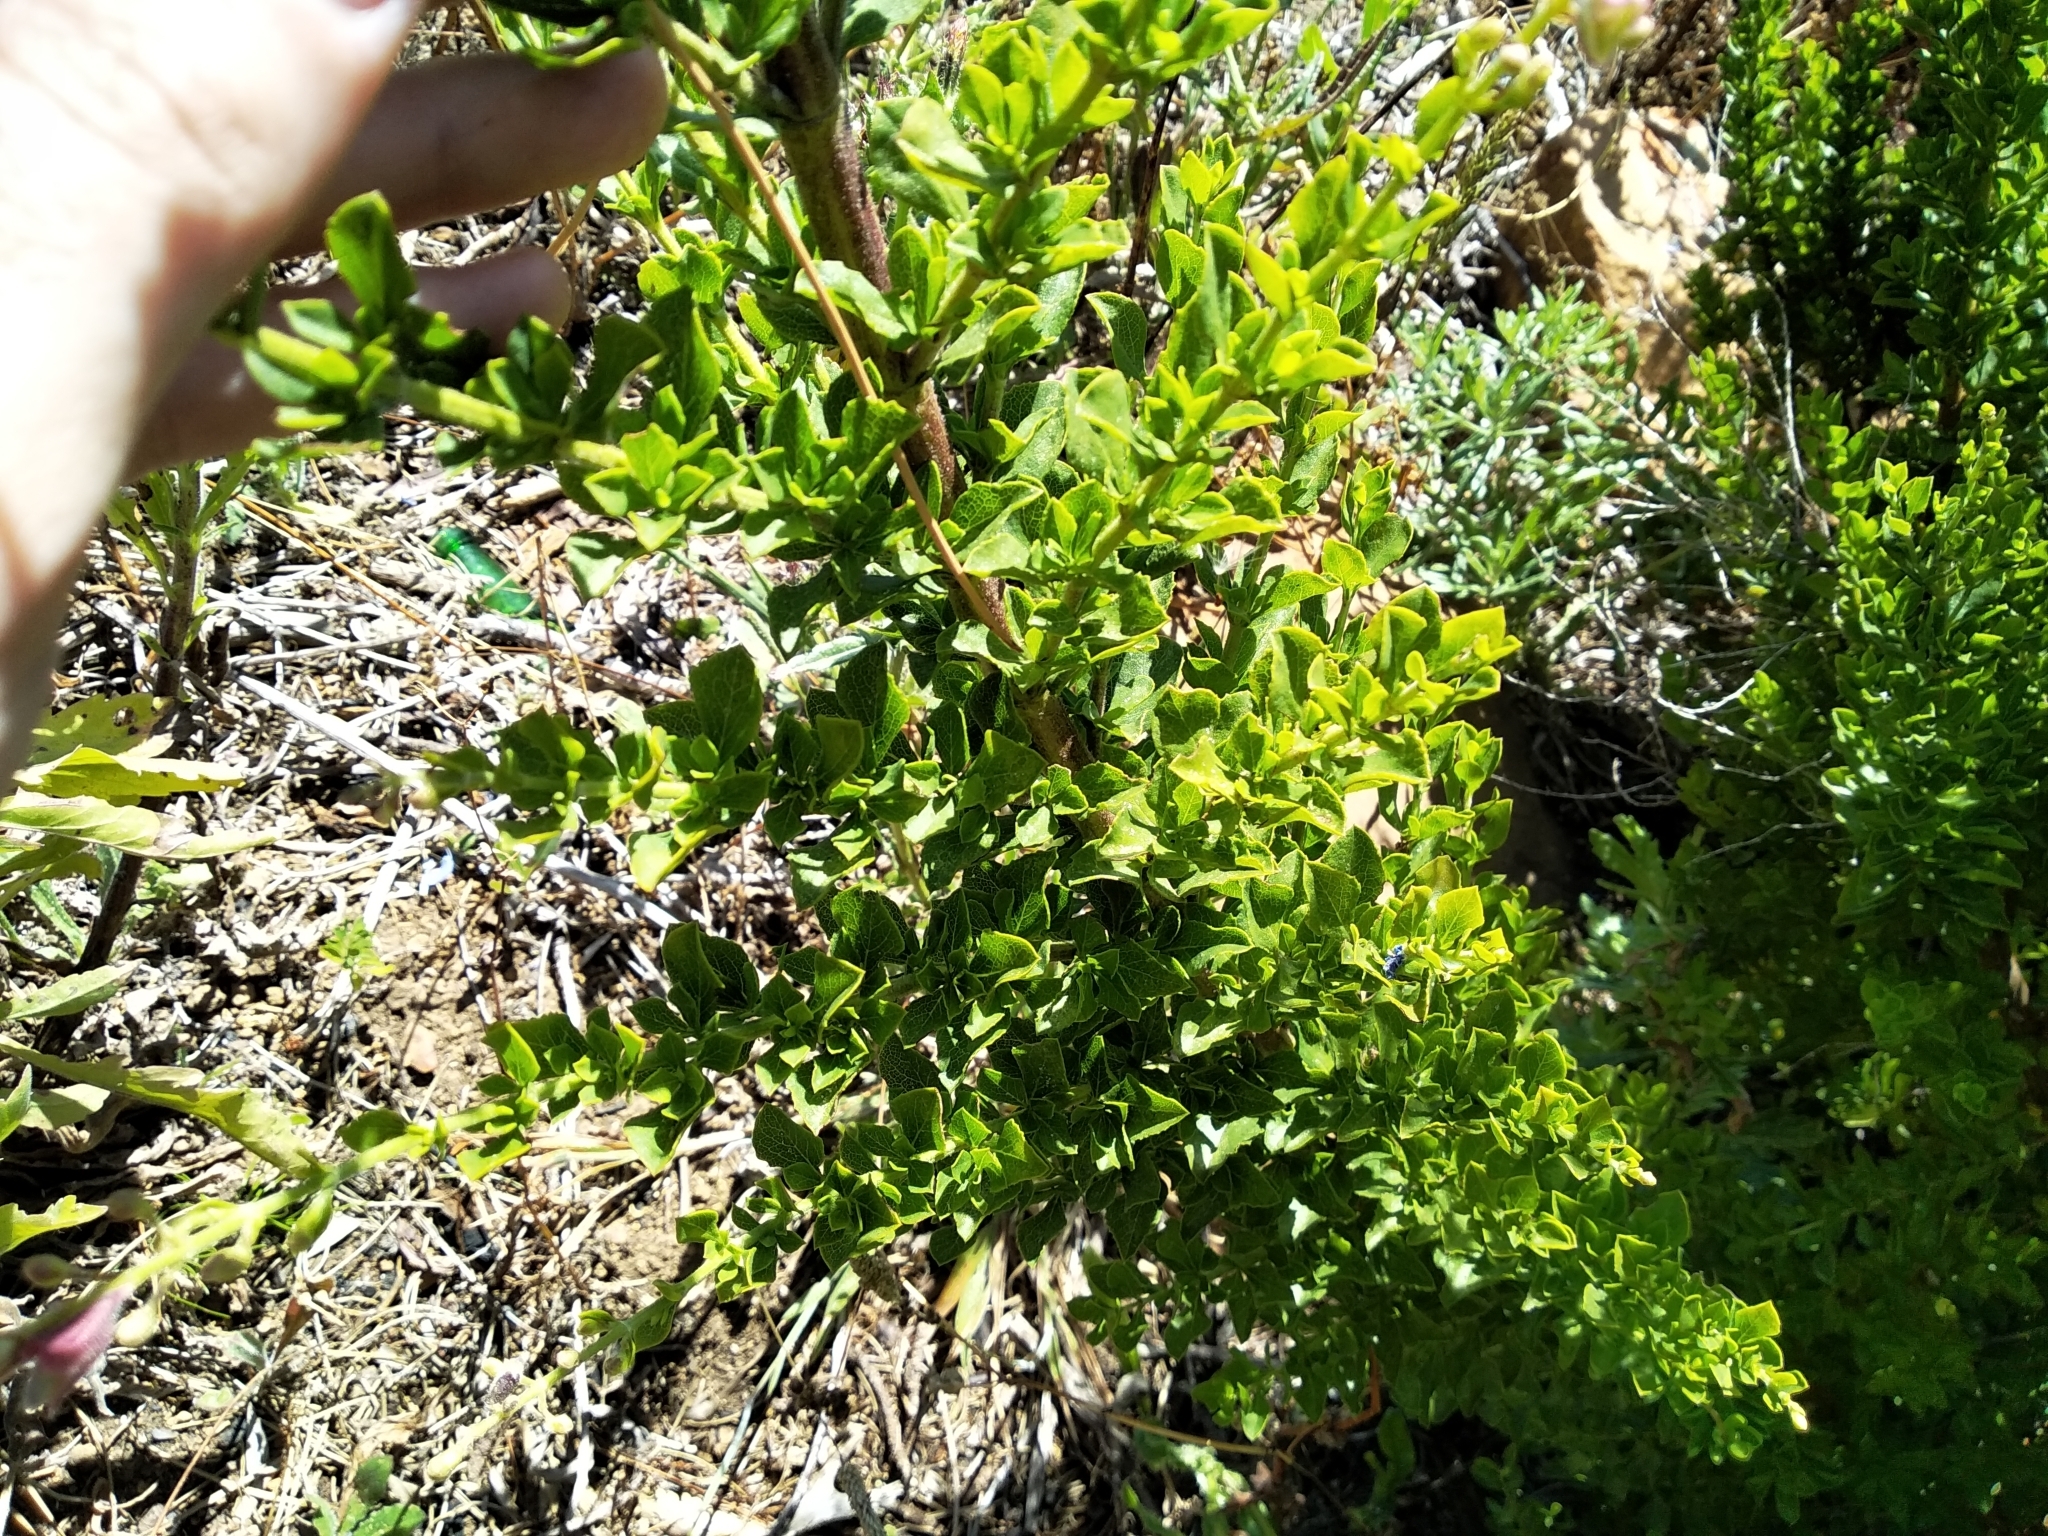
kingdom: Plantae
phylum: Tracheophyta
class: Magnoliopsida
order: Lamiales
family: Lamiaceae
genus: Salvia
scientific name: Salvia chamelaeagnea
